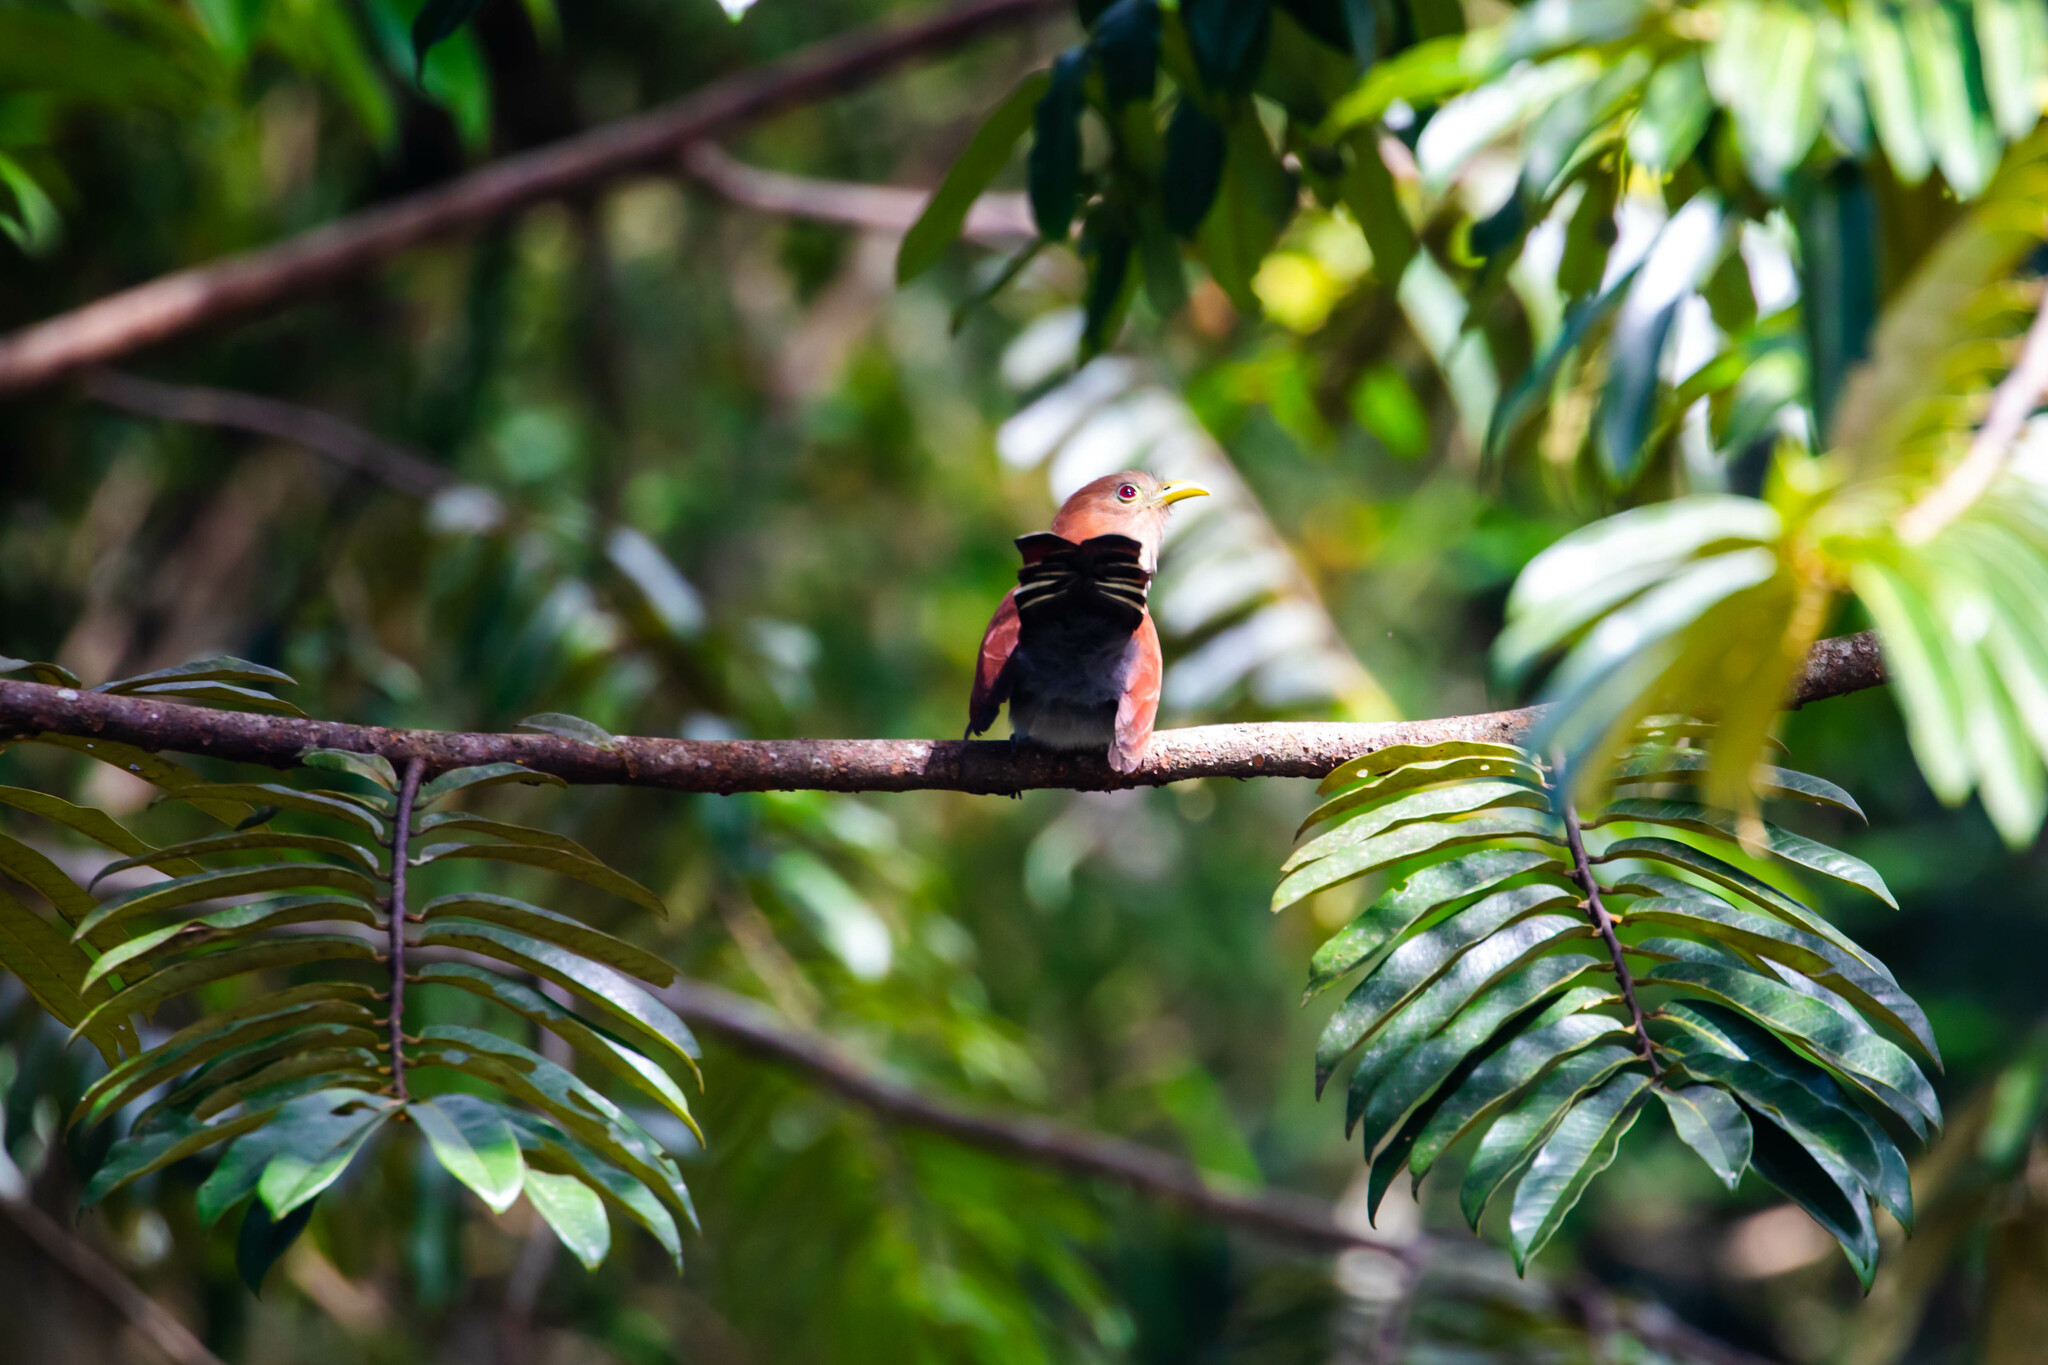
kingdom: Animalia
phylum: Chordata
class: Aves
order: Cuculiformes
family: Cuculidae
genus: Piaya
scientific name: Piaya cayana
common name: Squirrel cuckoo
